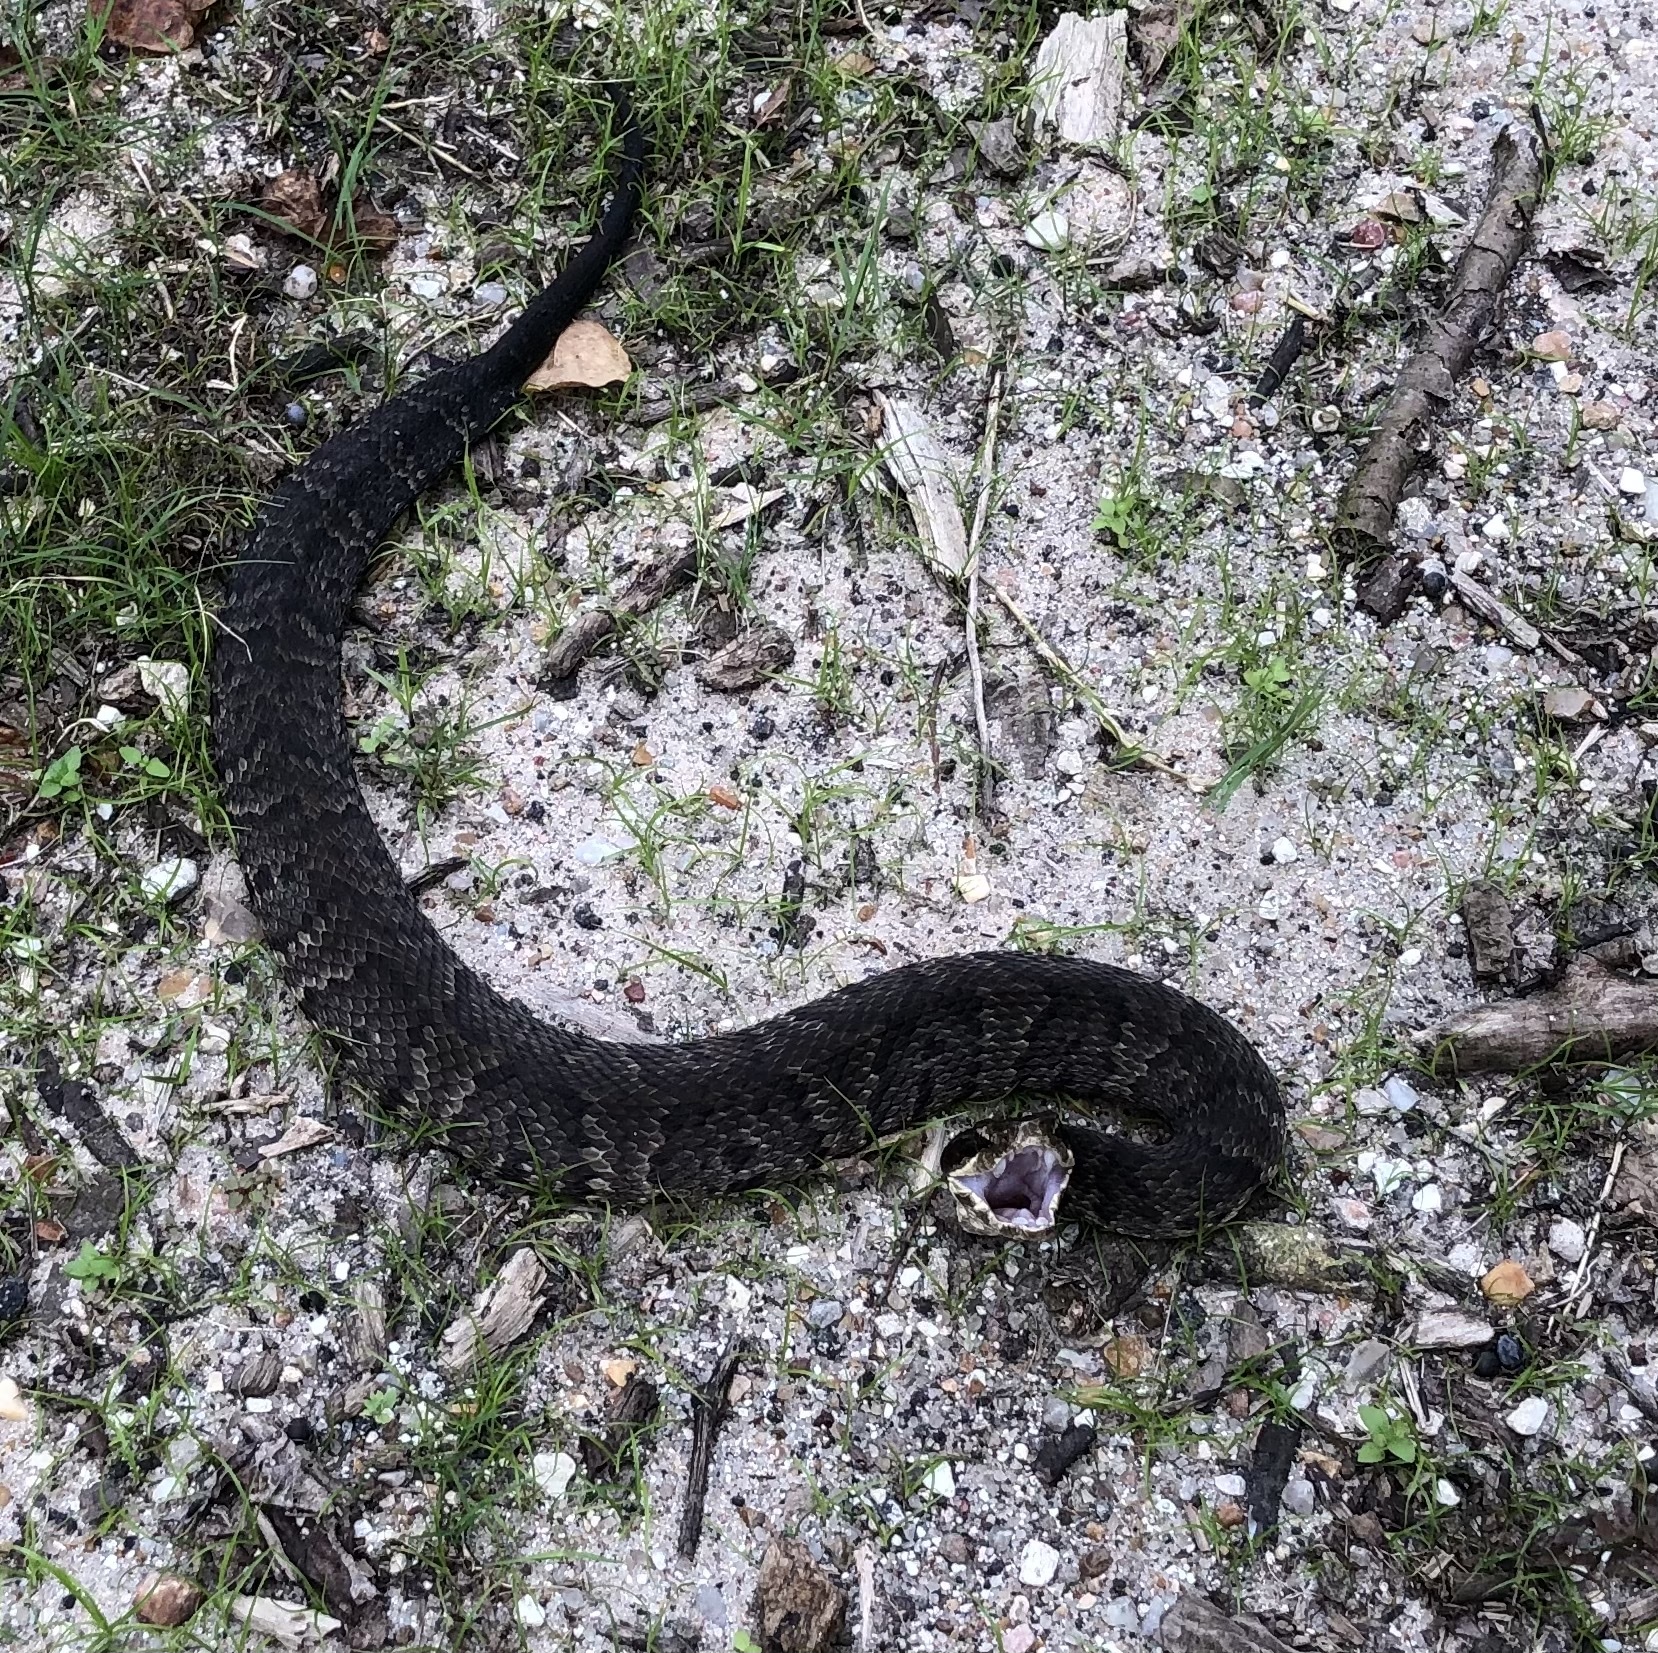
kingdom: Animalia
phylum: Chordata
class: Squamata
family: Viperidae
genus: Agkistrodon
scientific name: Agkistrodon piscivorus
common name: Cottonmouth
